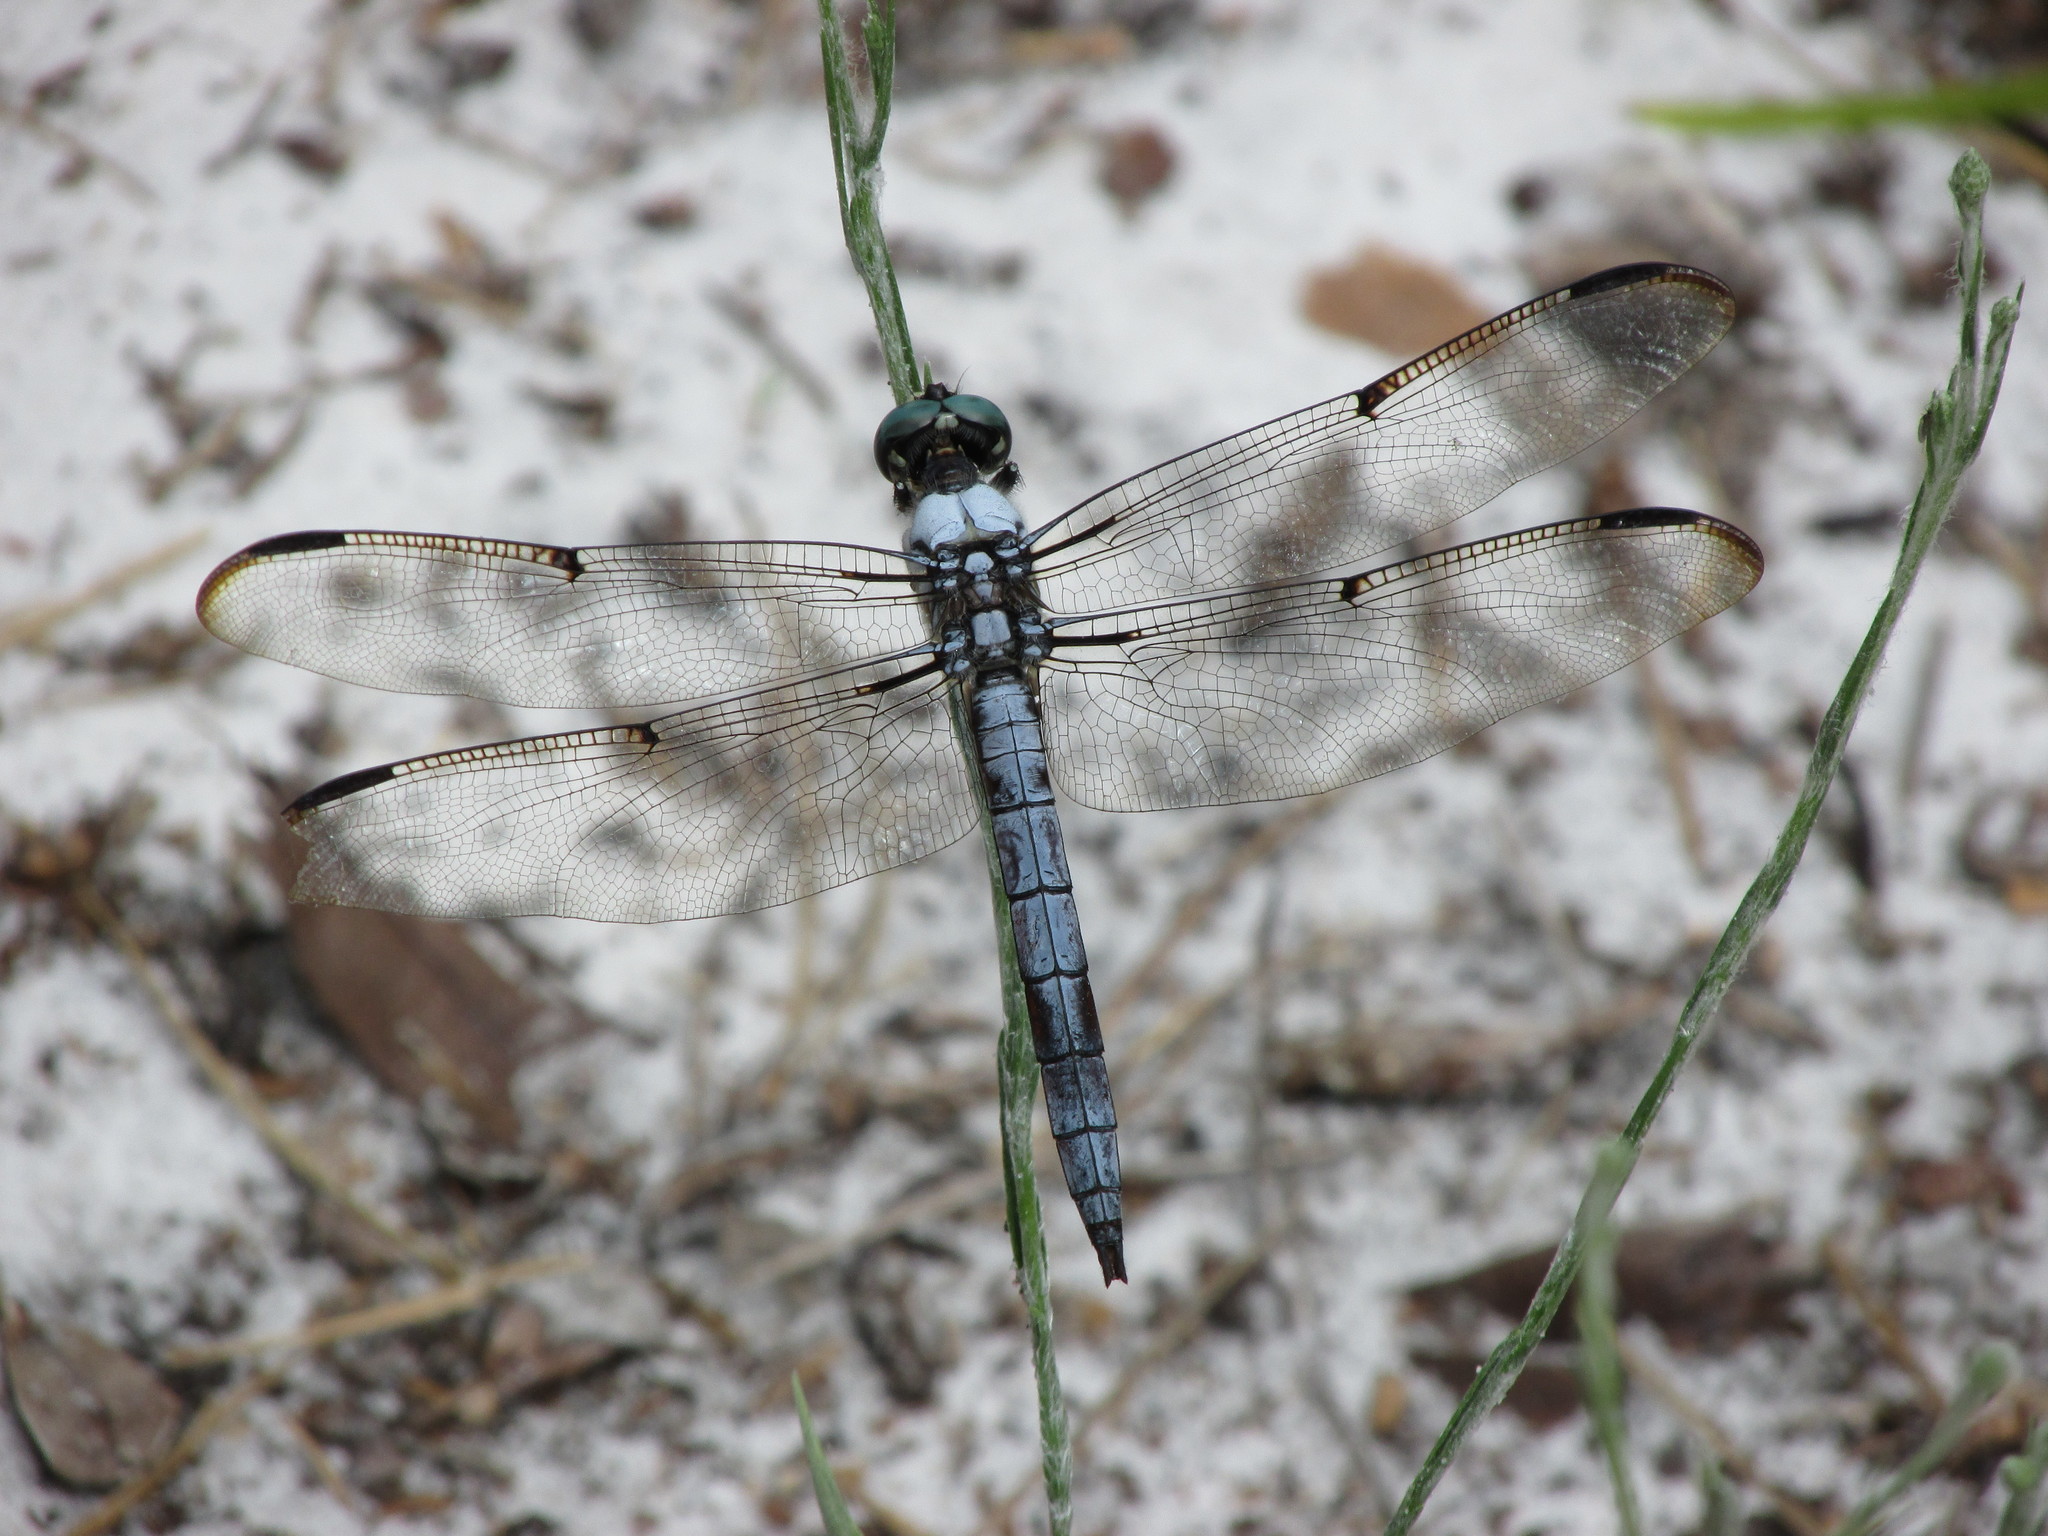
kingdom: Animalia
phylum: Arthropoda
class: Insecta
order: Odonata
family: Libellulidae
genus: Libellula
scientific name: Libellula vibrans
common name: Great blue skimmer
